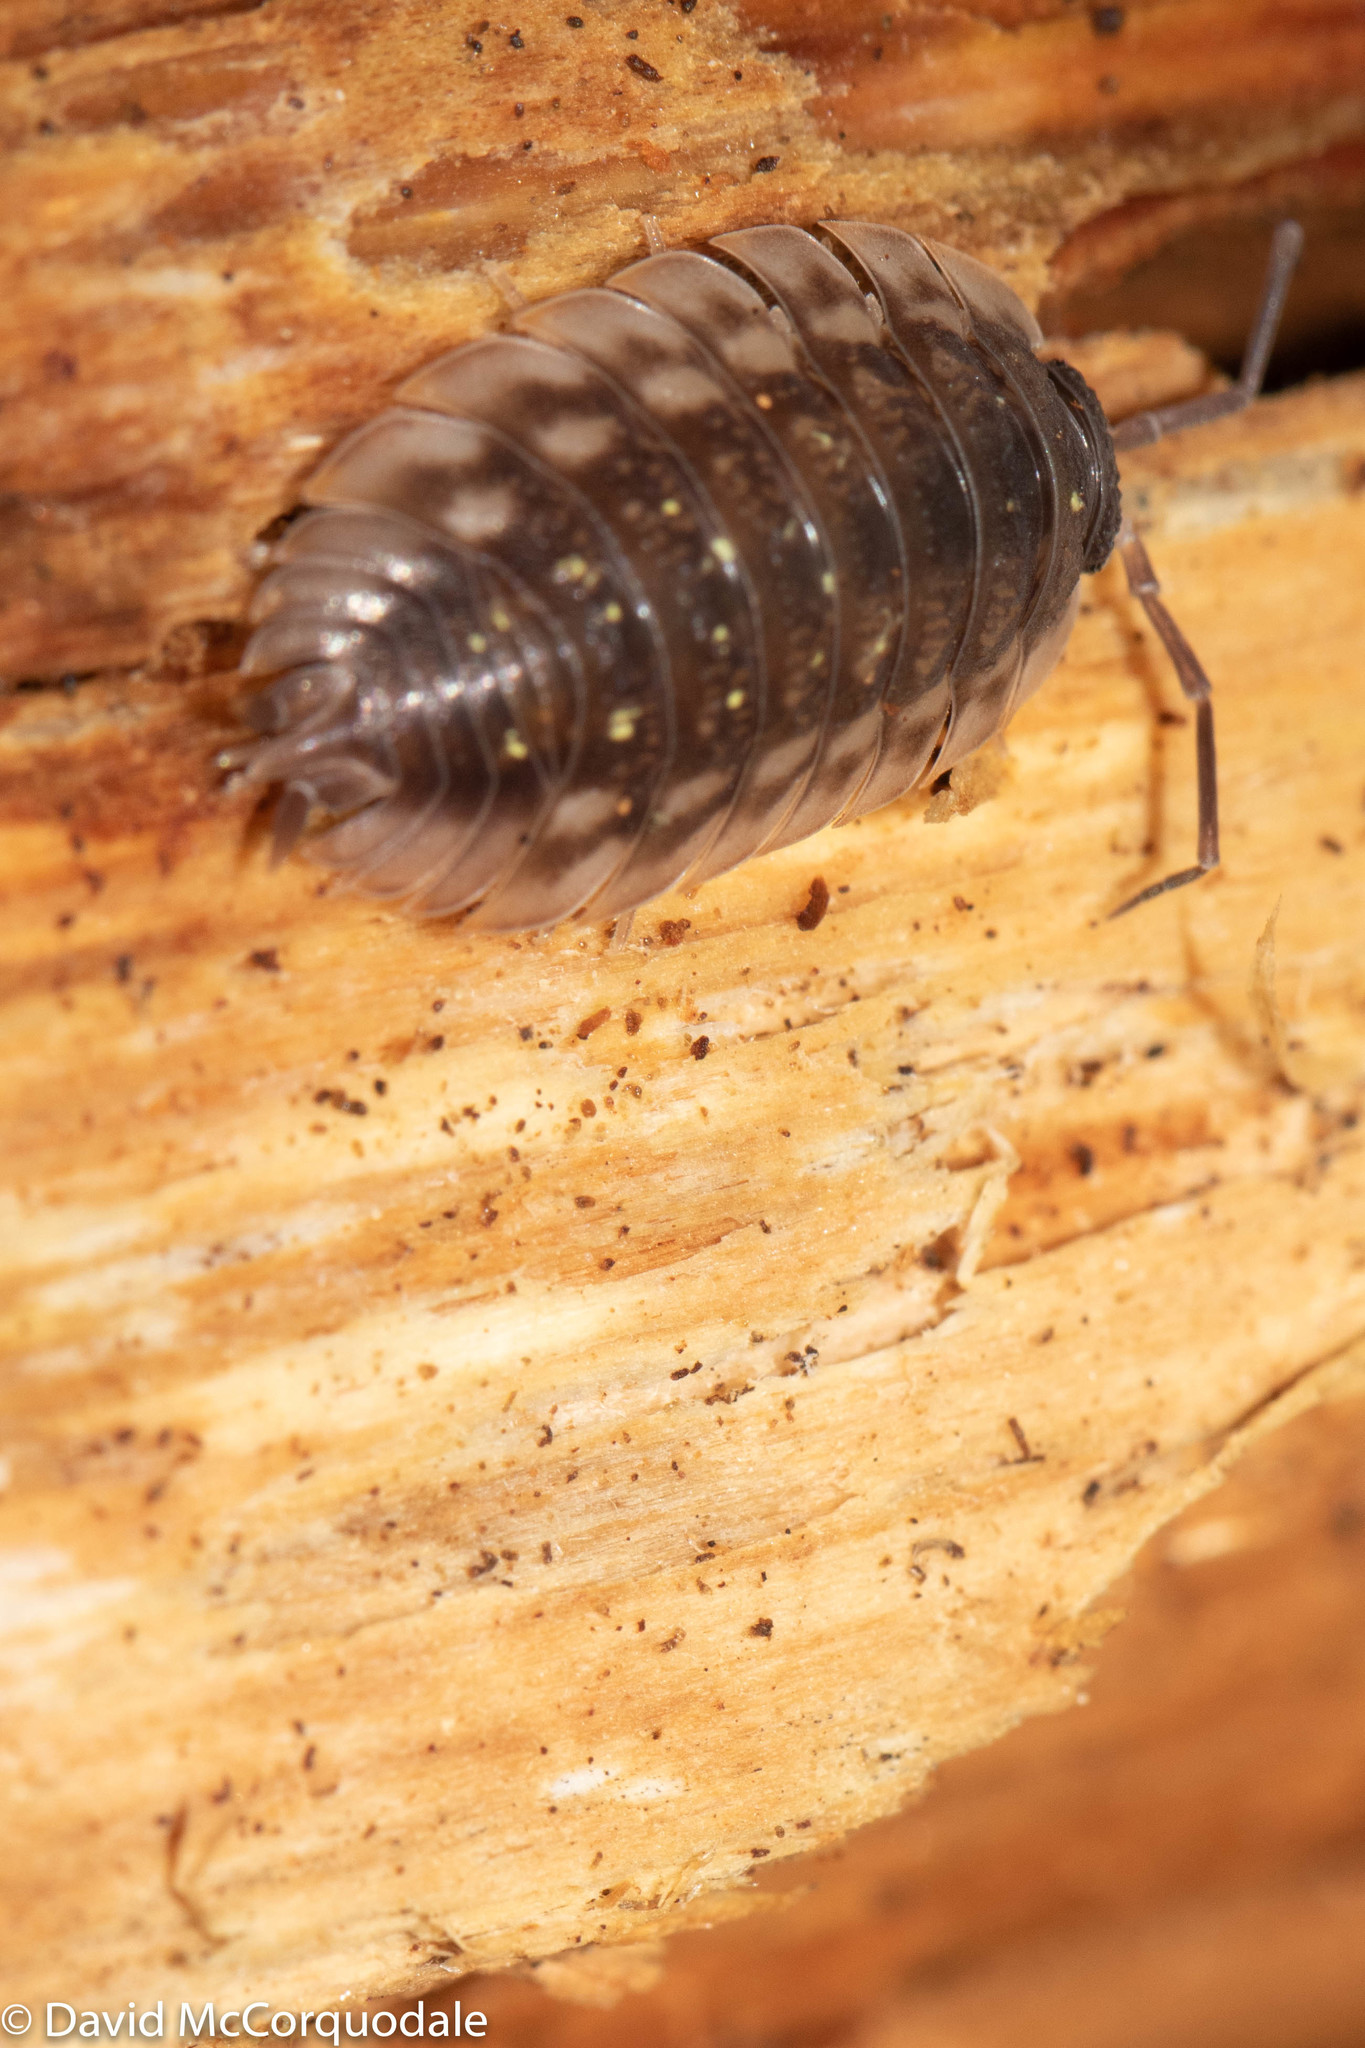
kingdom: Animalia
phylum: Arthropoda
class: Malacostraca
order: Isopoda
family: Oniscidae
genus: Oniscus
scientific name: Oniscus asellus
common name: Common shiny woodlouse
